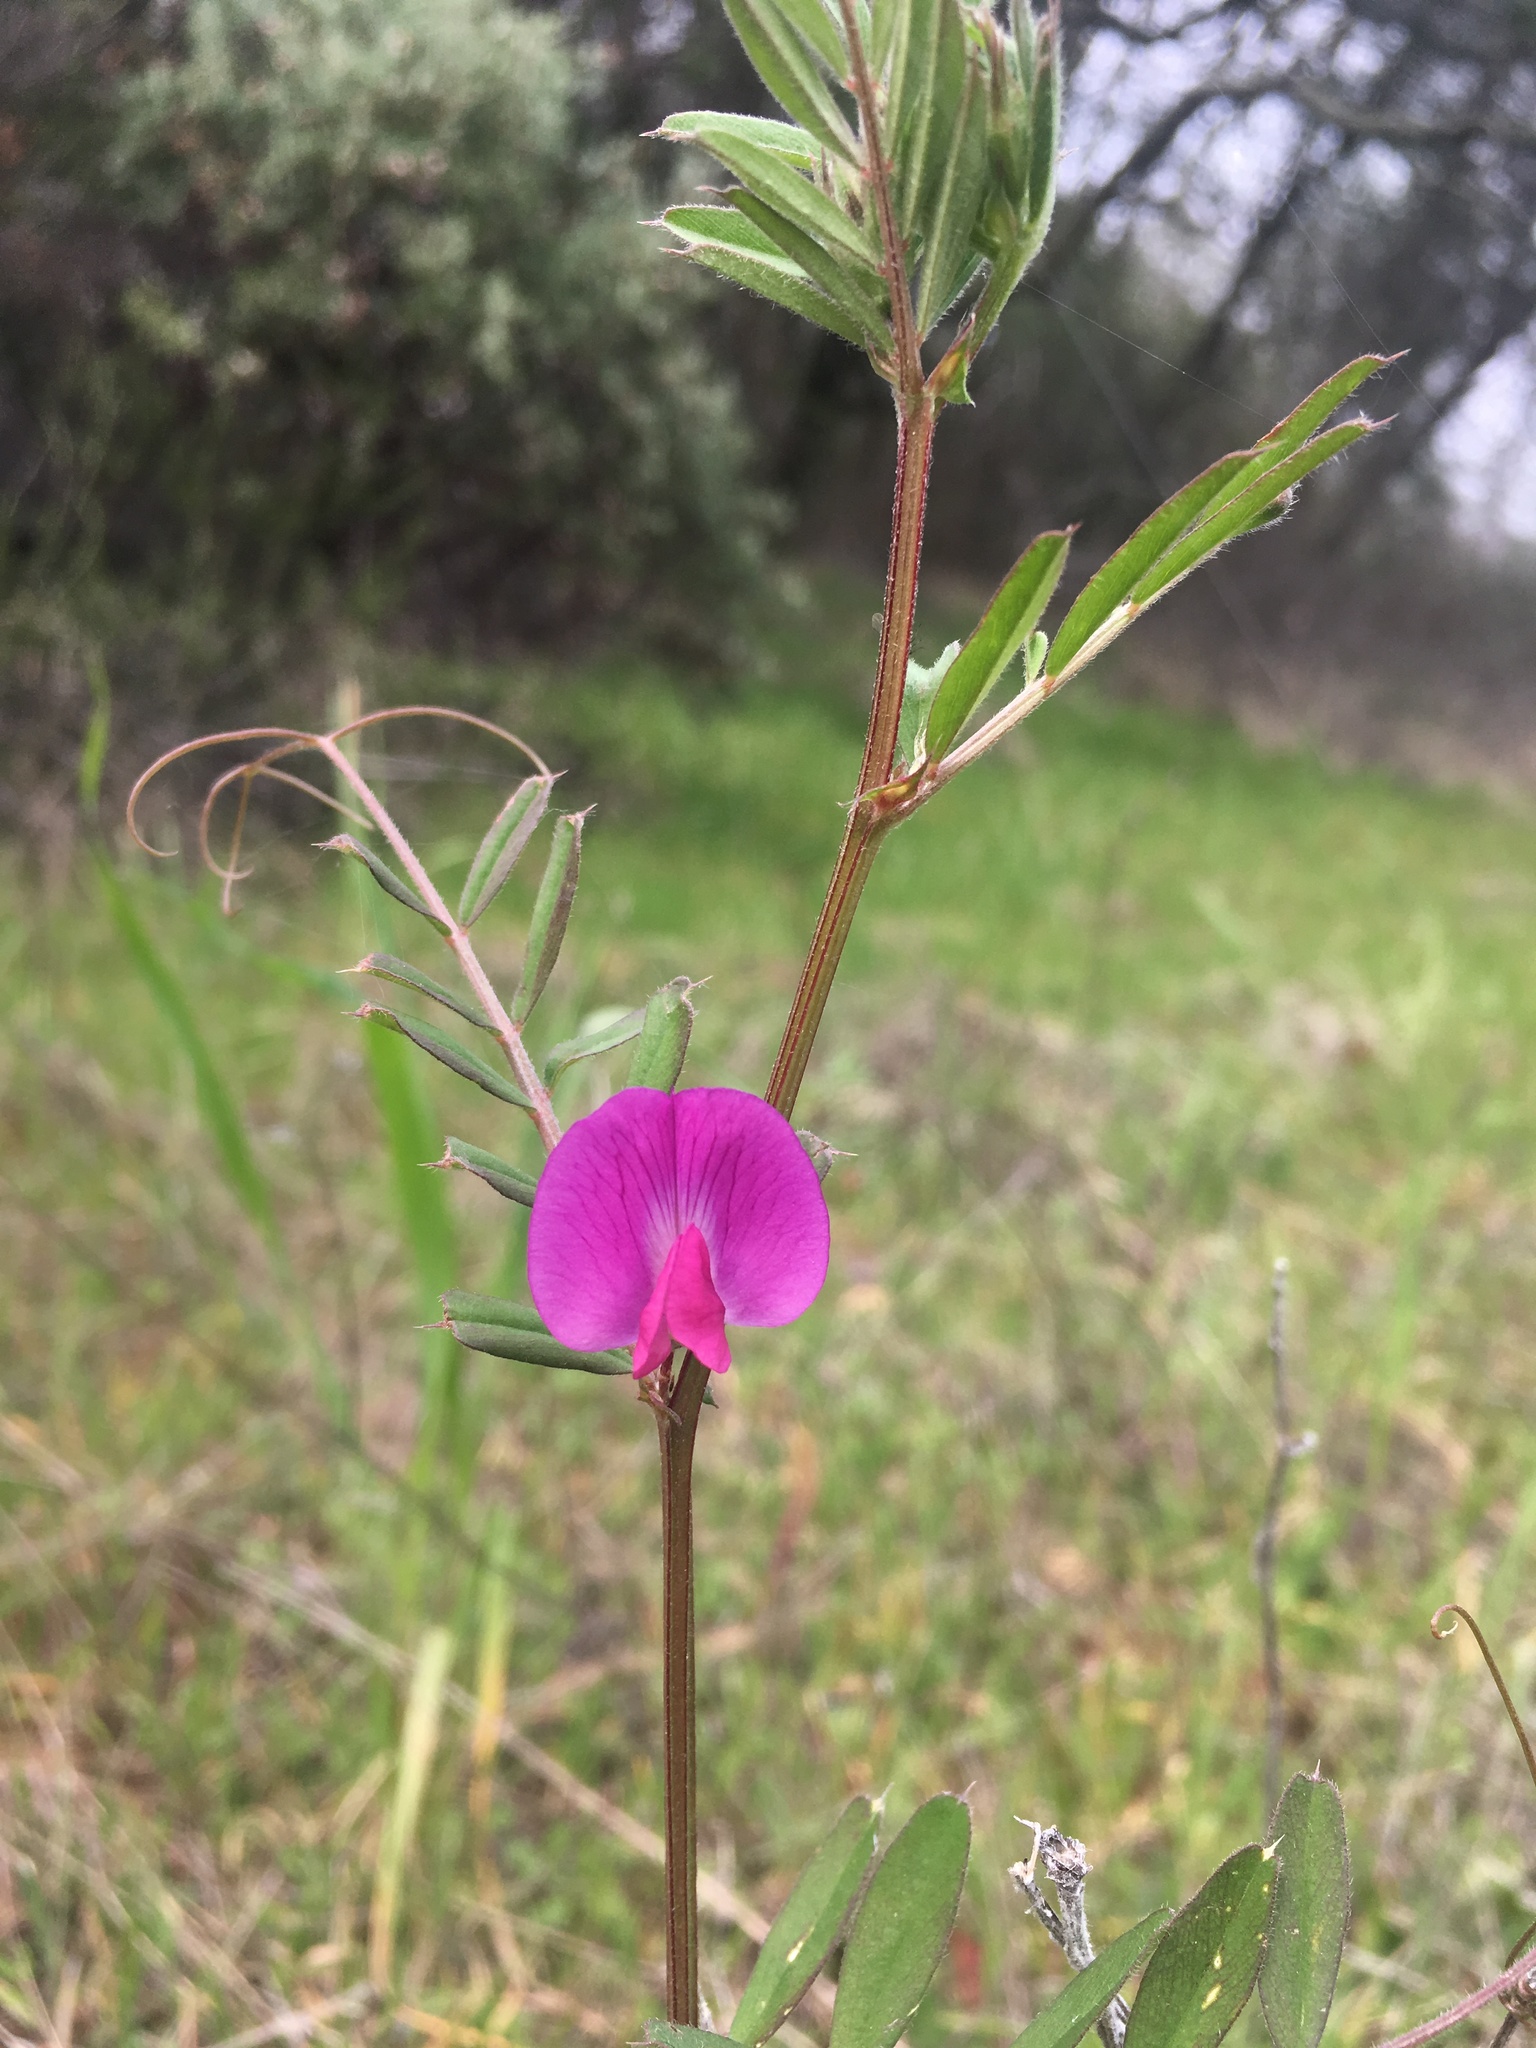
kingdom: Plantae
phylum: Tracheophyta
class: Magnoliopsida
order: Fabales
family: Fabaceae
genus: Vicia
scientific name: Vicia sativa
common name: Garden vetch
